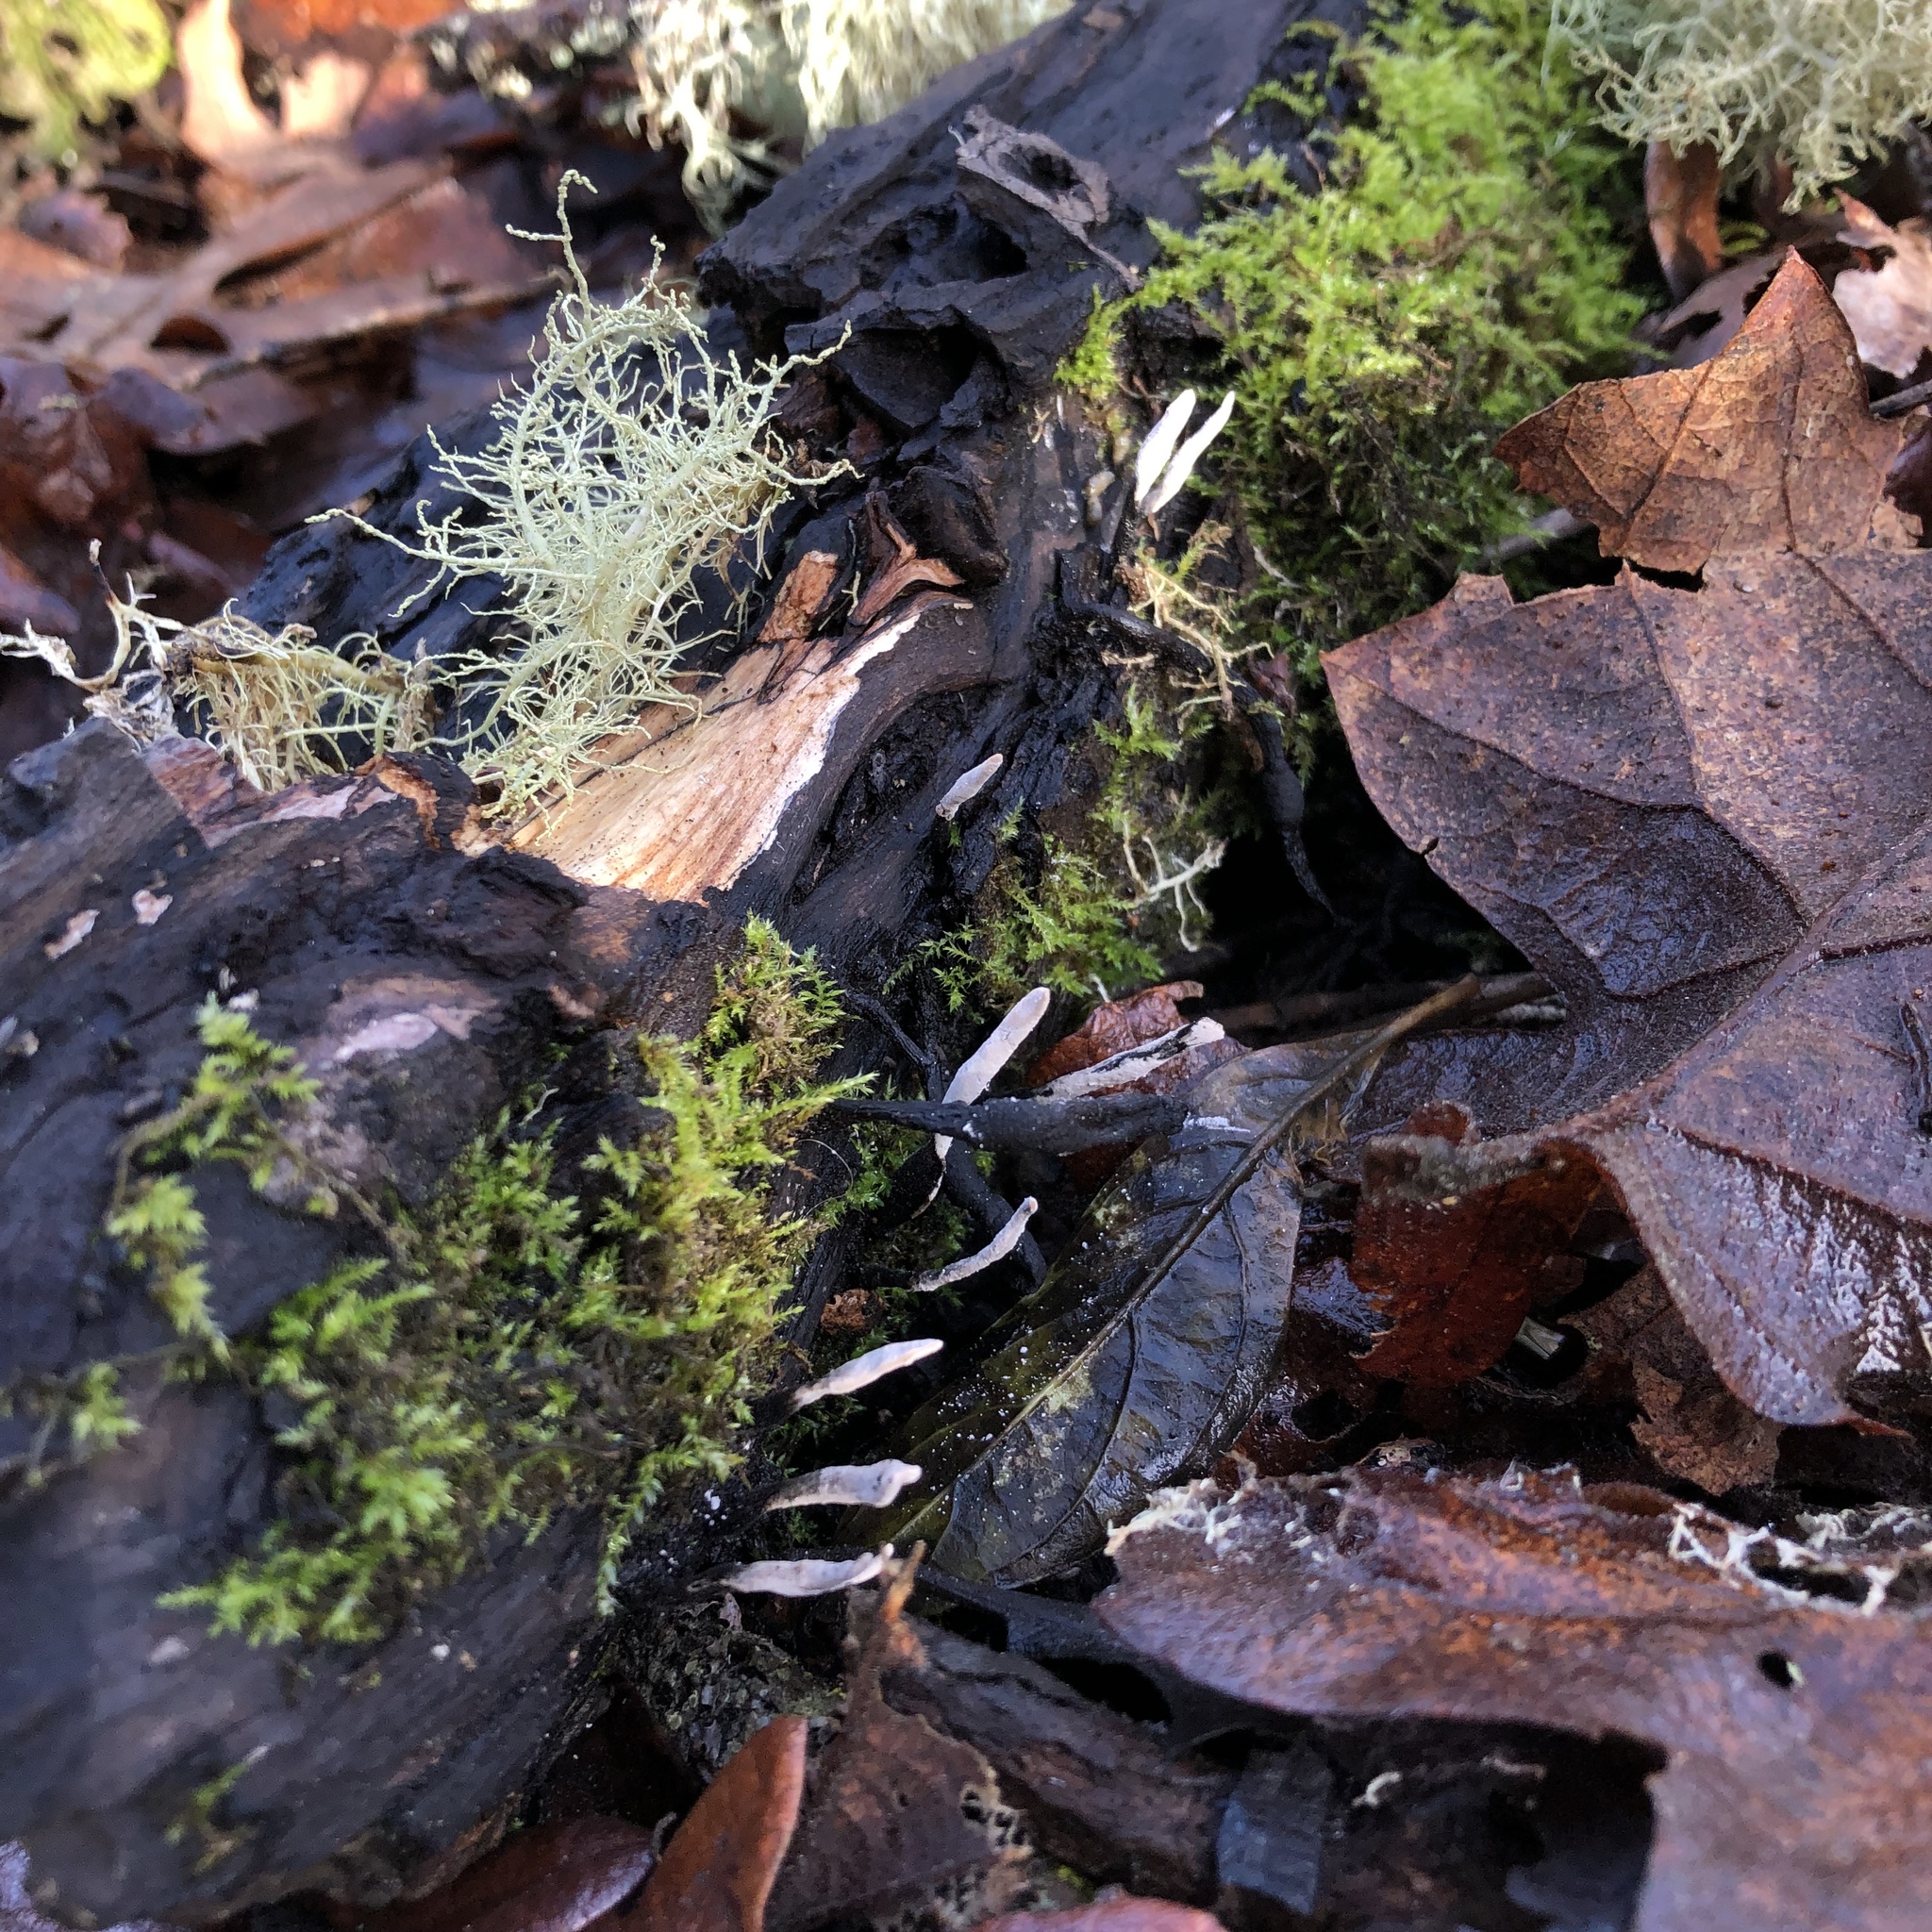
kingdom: Fungi
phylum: Ascomycota
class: Sordariomycetes
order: Xylariales
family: Xylariaceae
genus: Xylaria
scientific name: Xylaria hypoxylon
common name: Candle-snuff fungus
